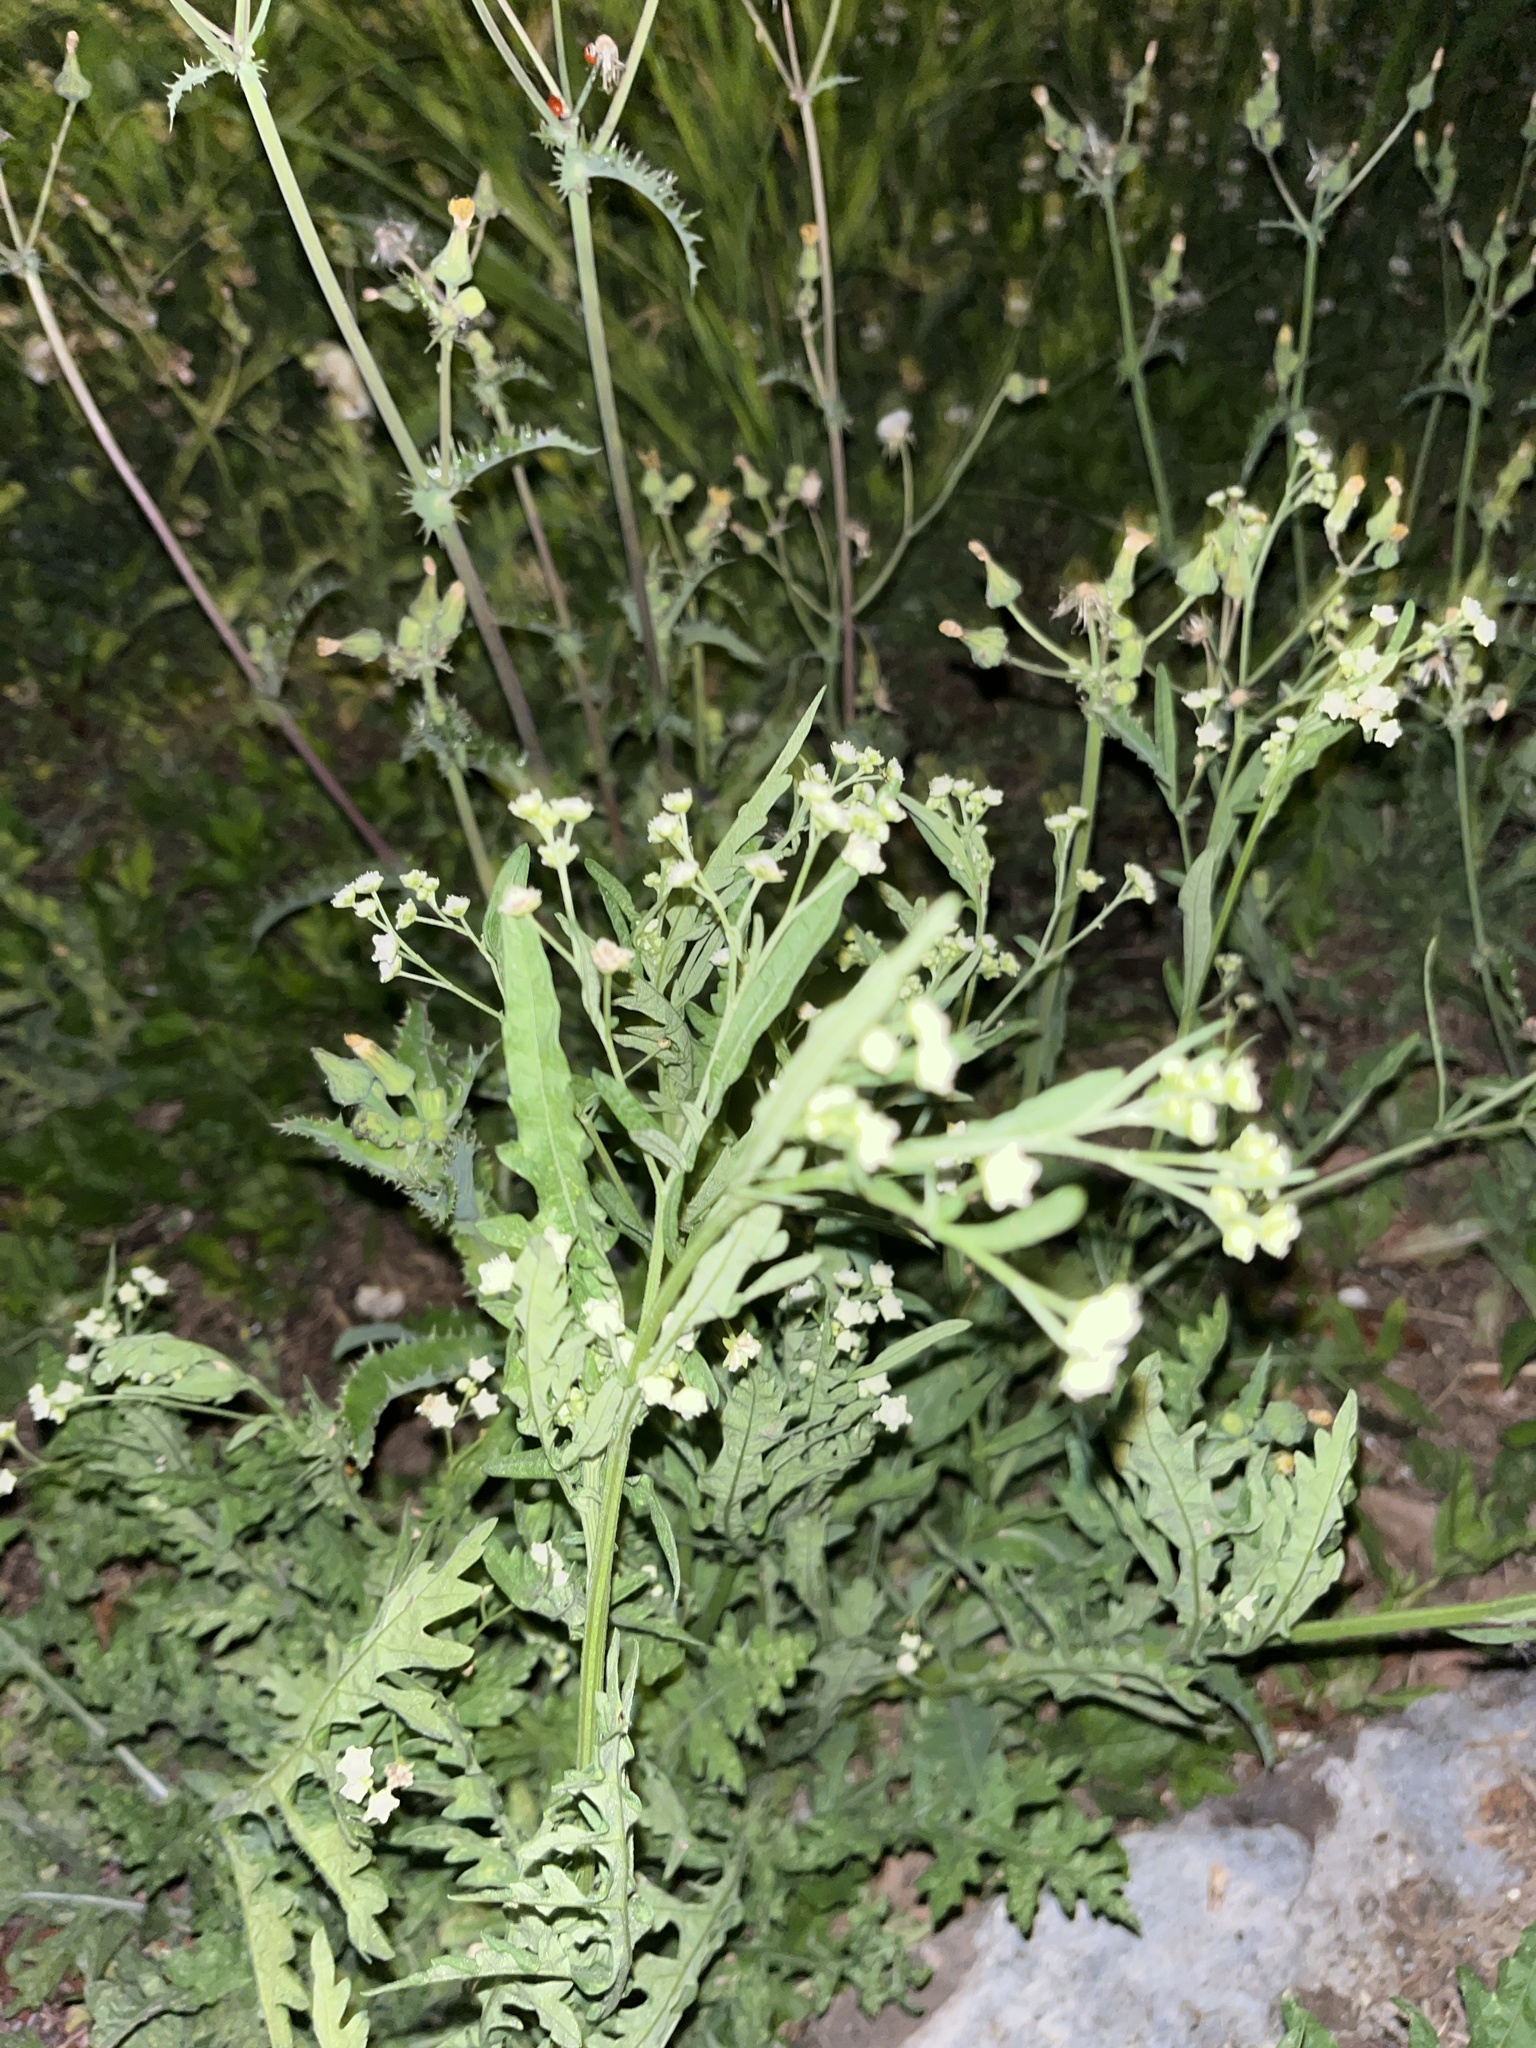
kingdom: Plantae
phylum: Tracheophyta
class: Magnoliopsida
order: Asterales
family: Asteraceae
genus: Parthenium
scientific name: Parthenium hysterophorus
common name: Santa maria feverfew
